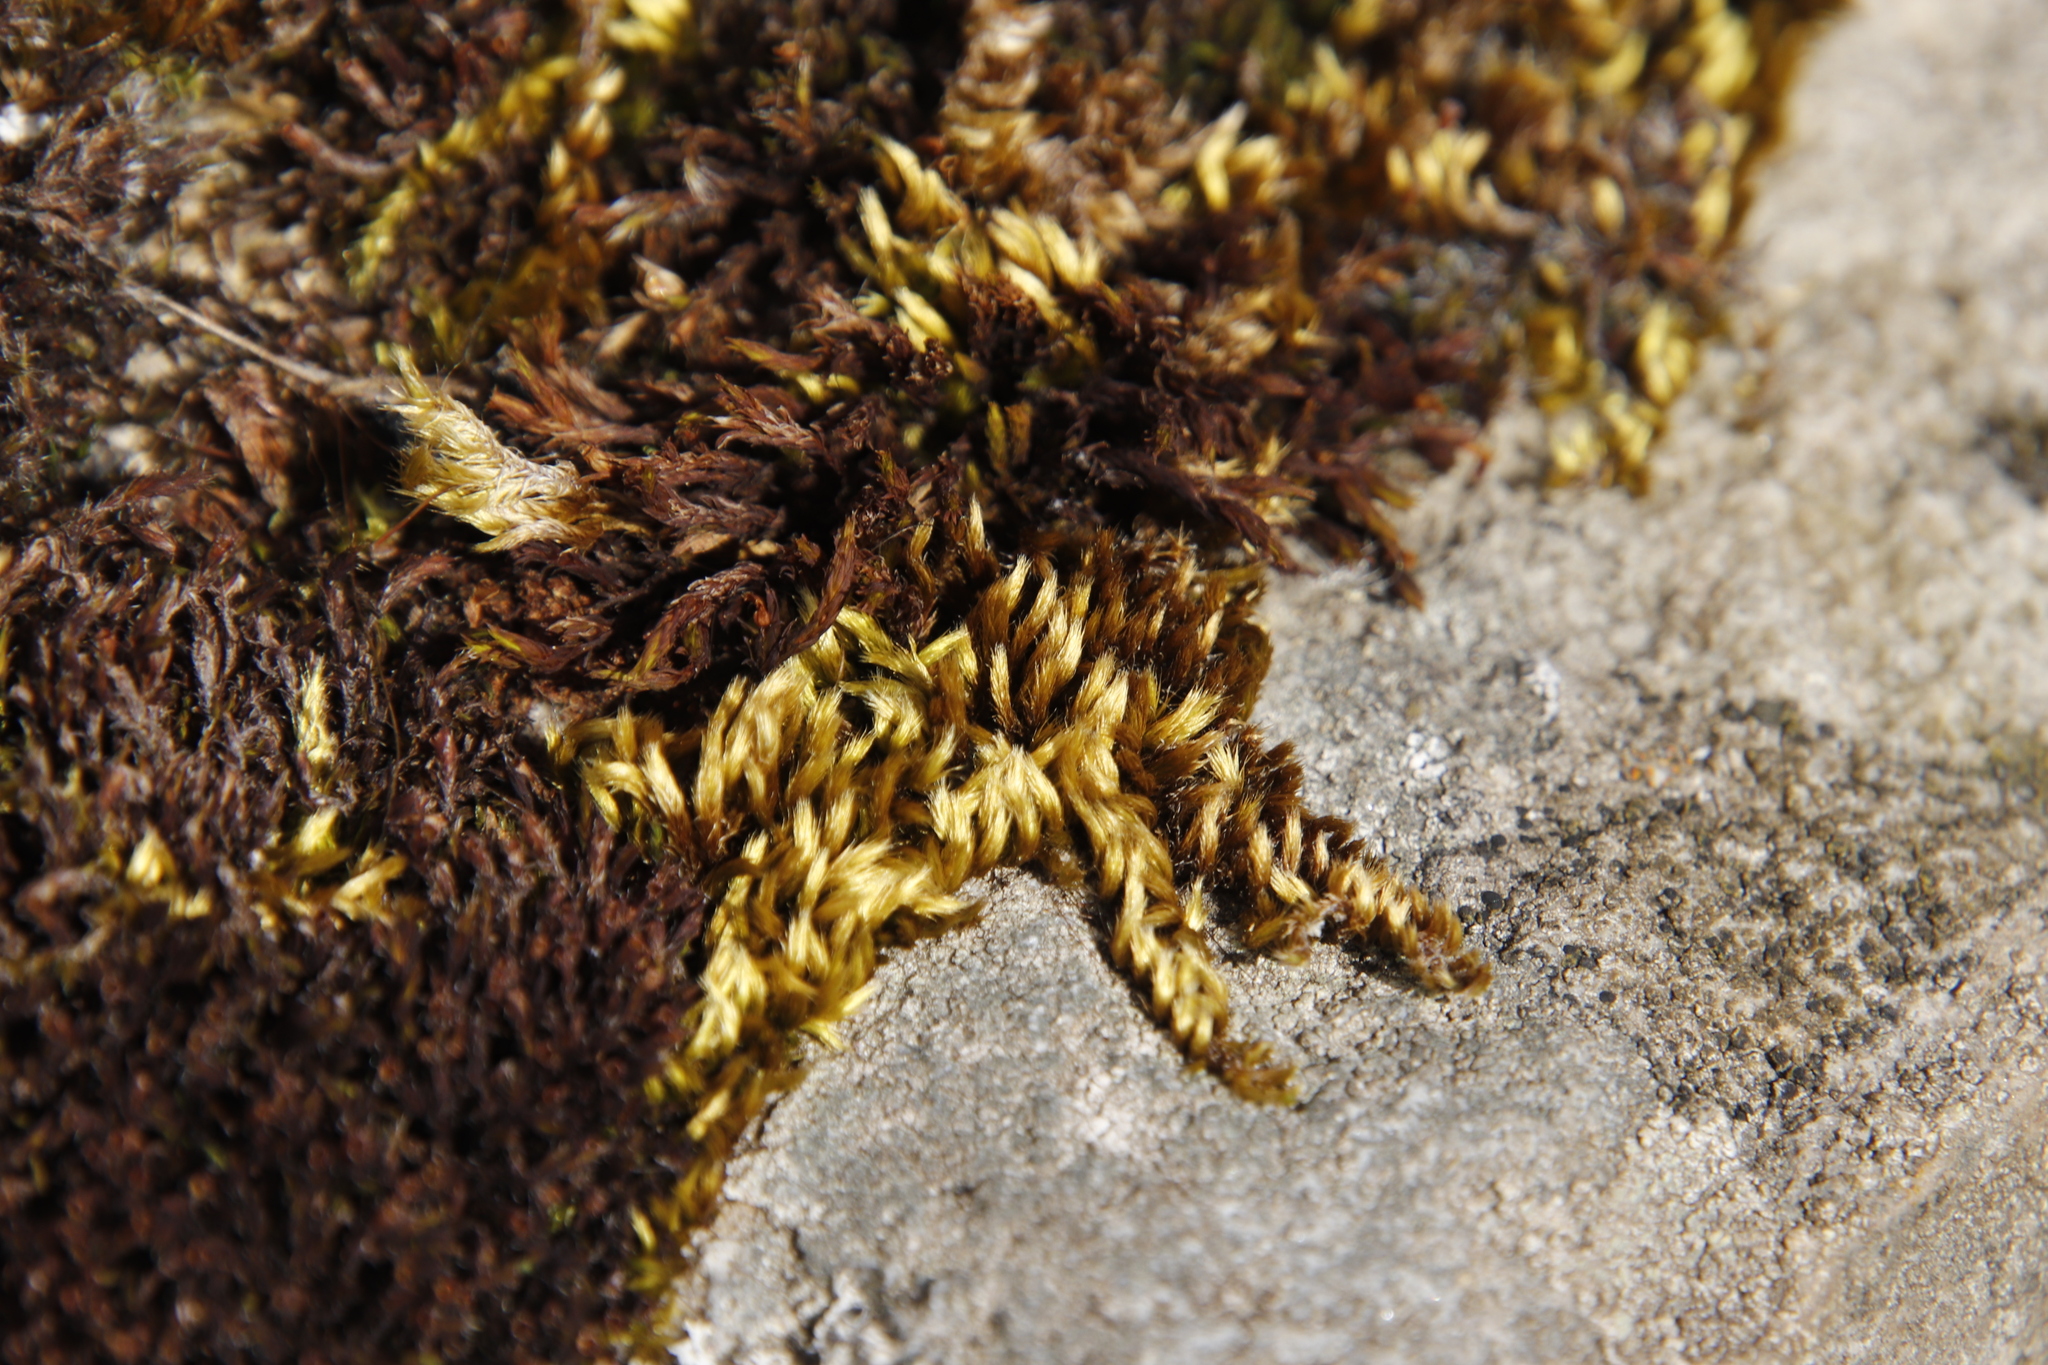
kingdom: Plantae
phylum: Bryophyta
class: Bryopsida
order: Hypnales
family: Brachytheciaceae
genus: Homalothecium
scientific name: Homalothecium sericeum
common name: Silky wall feather-moss
